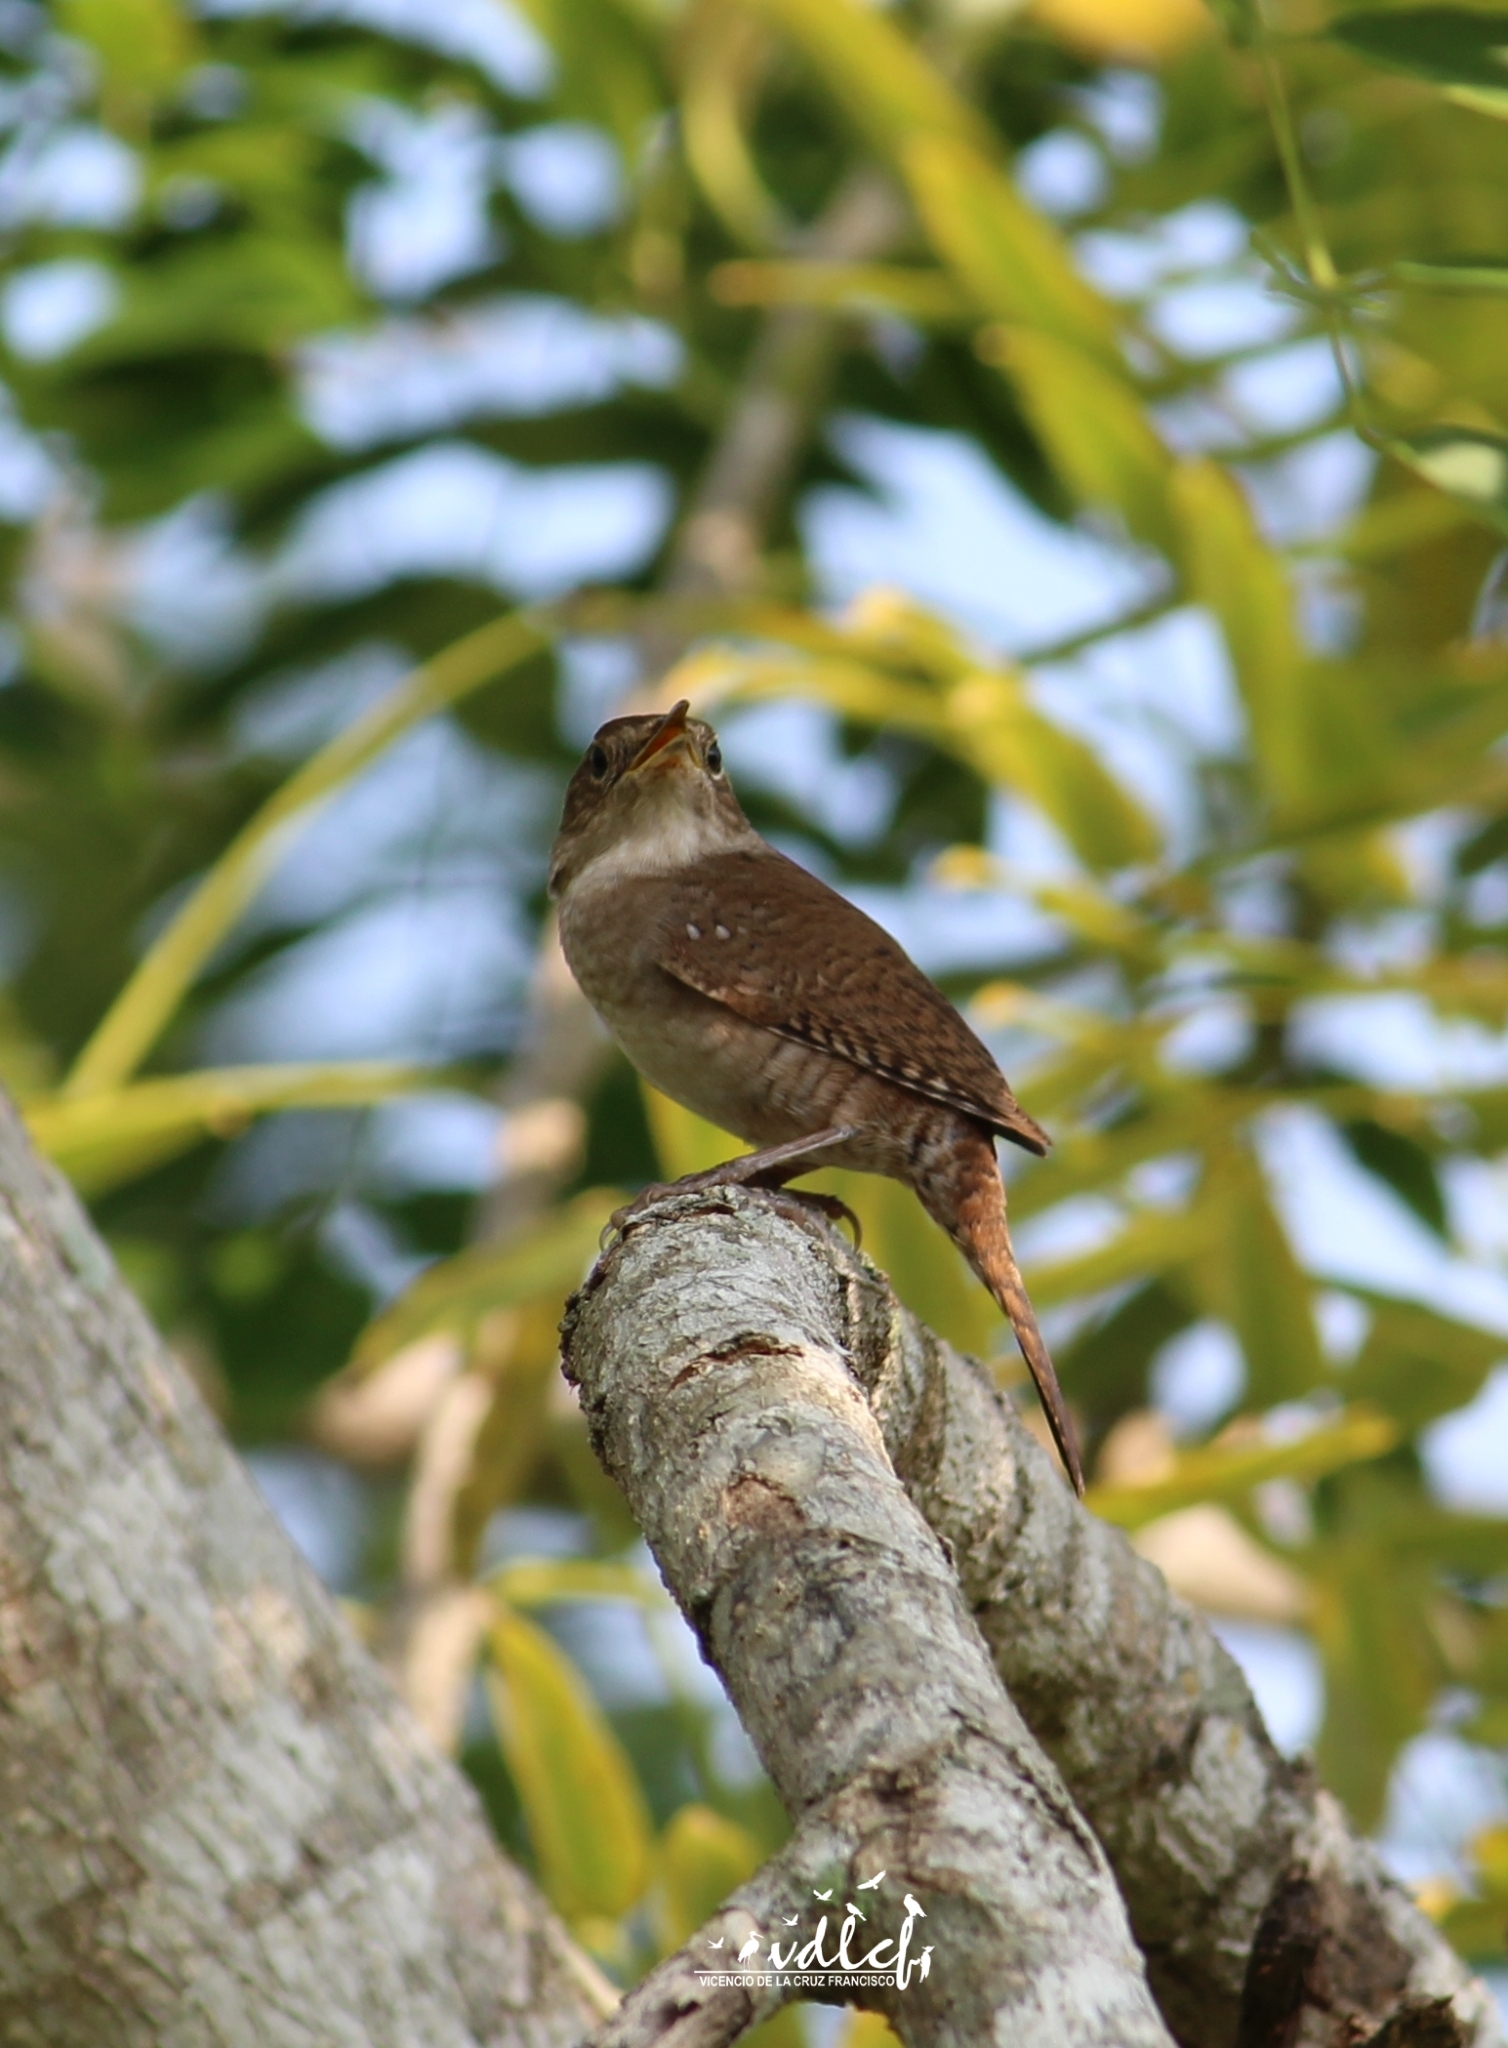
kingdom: Animalia
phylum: Chordata
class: Aves
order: Passeriformes
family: Troglodytidae
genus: Troglodytes
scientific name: Troglodytes aedon
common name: House wren
